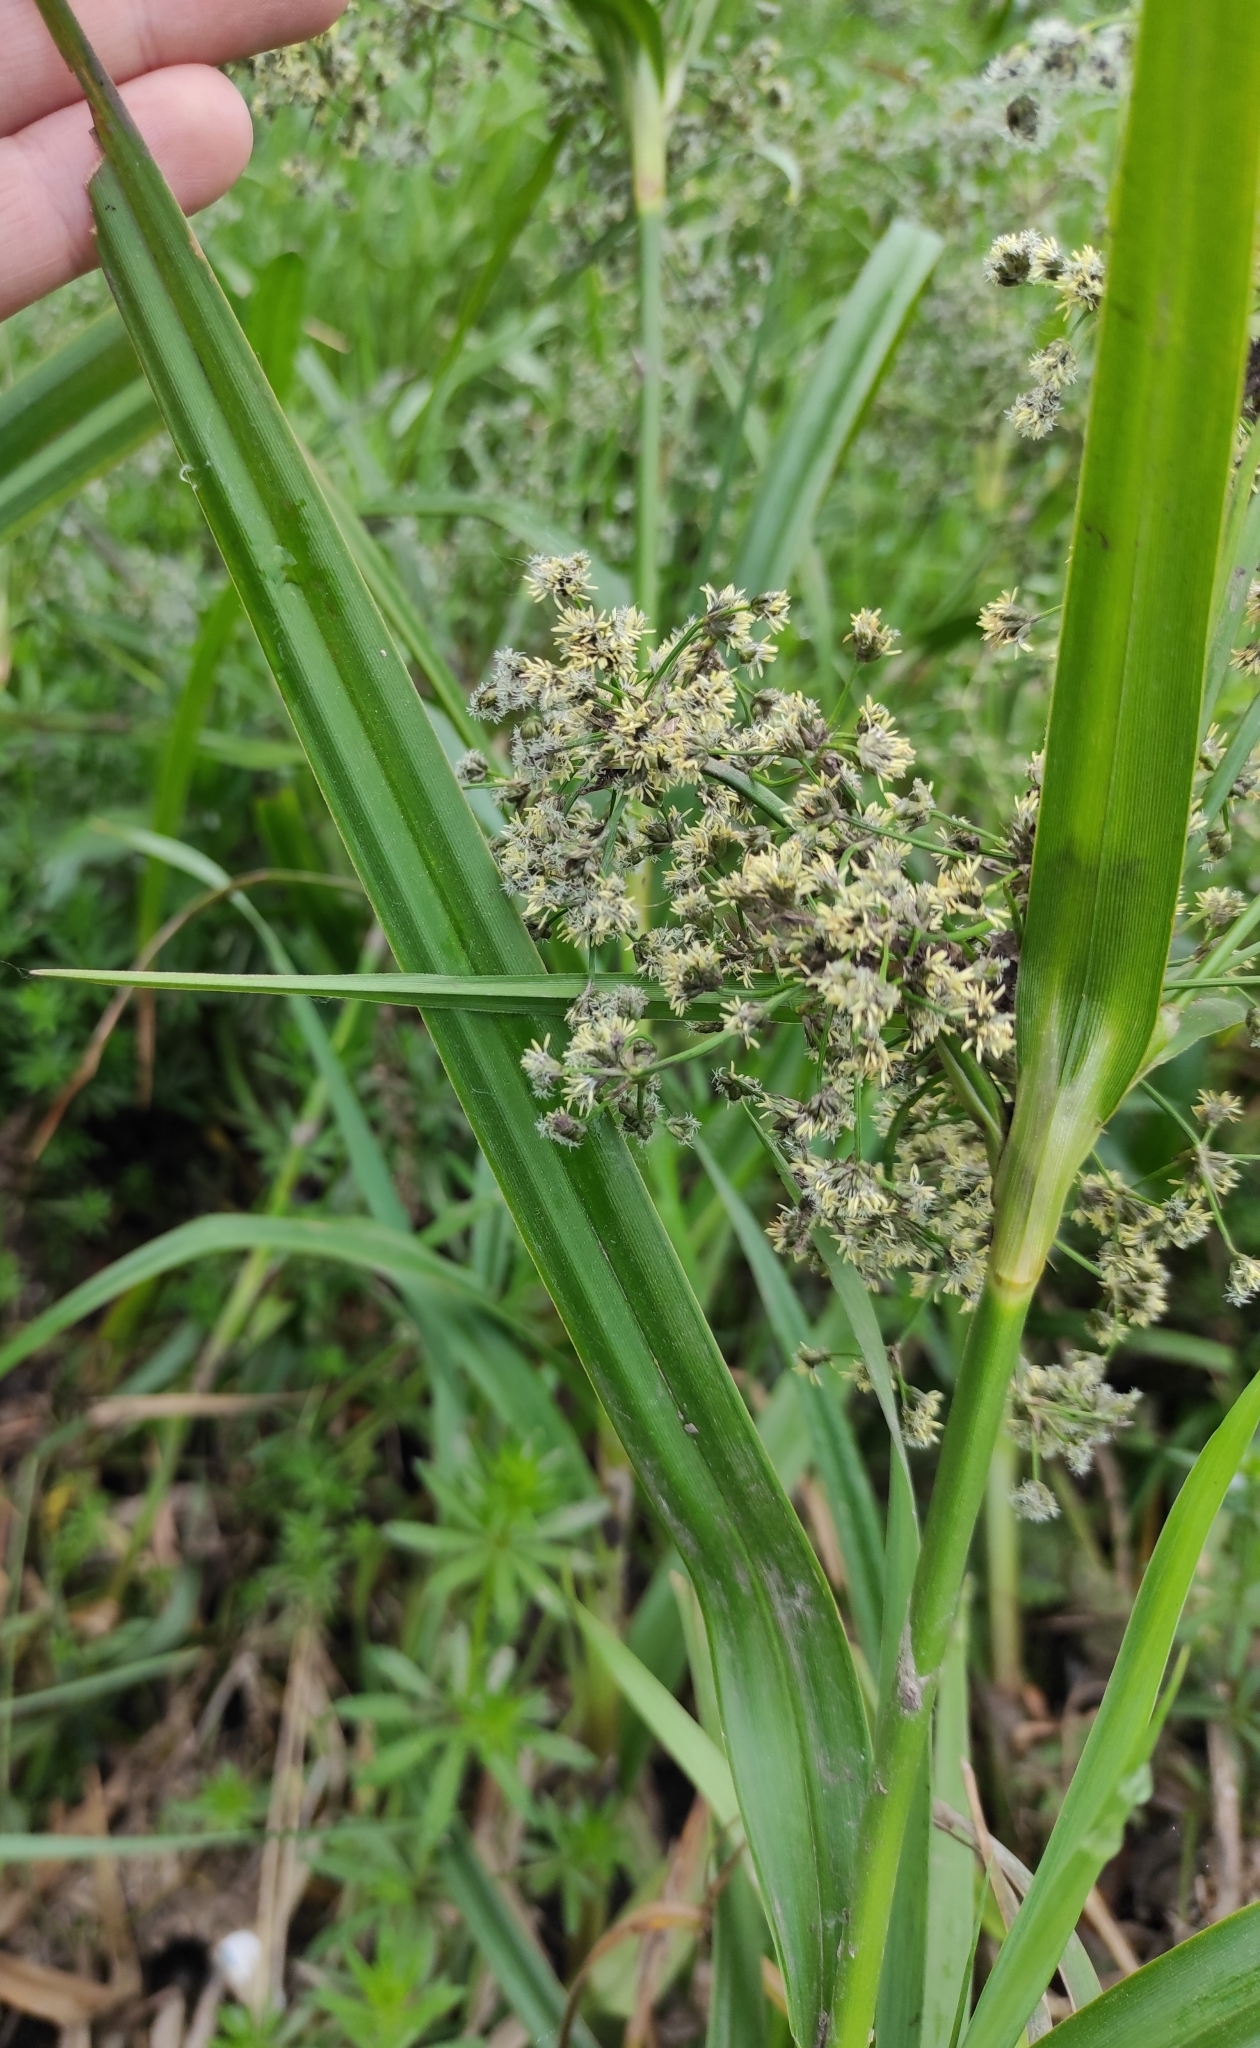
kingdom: Plantae
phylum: Tracheophyta
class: Liliopsida
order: Poales
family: Cyperaceae
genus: Scirpus
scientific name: Scirpus sylvaticus
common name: Wood club-rush
